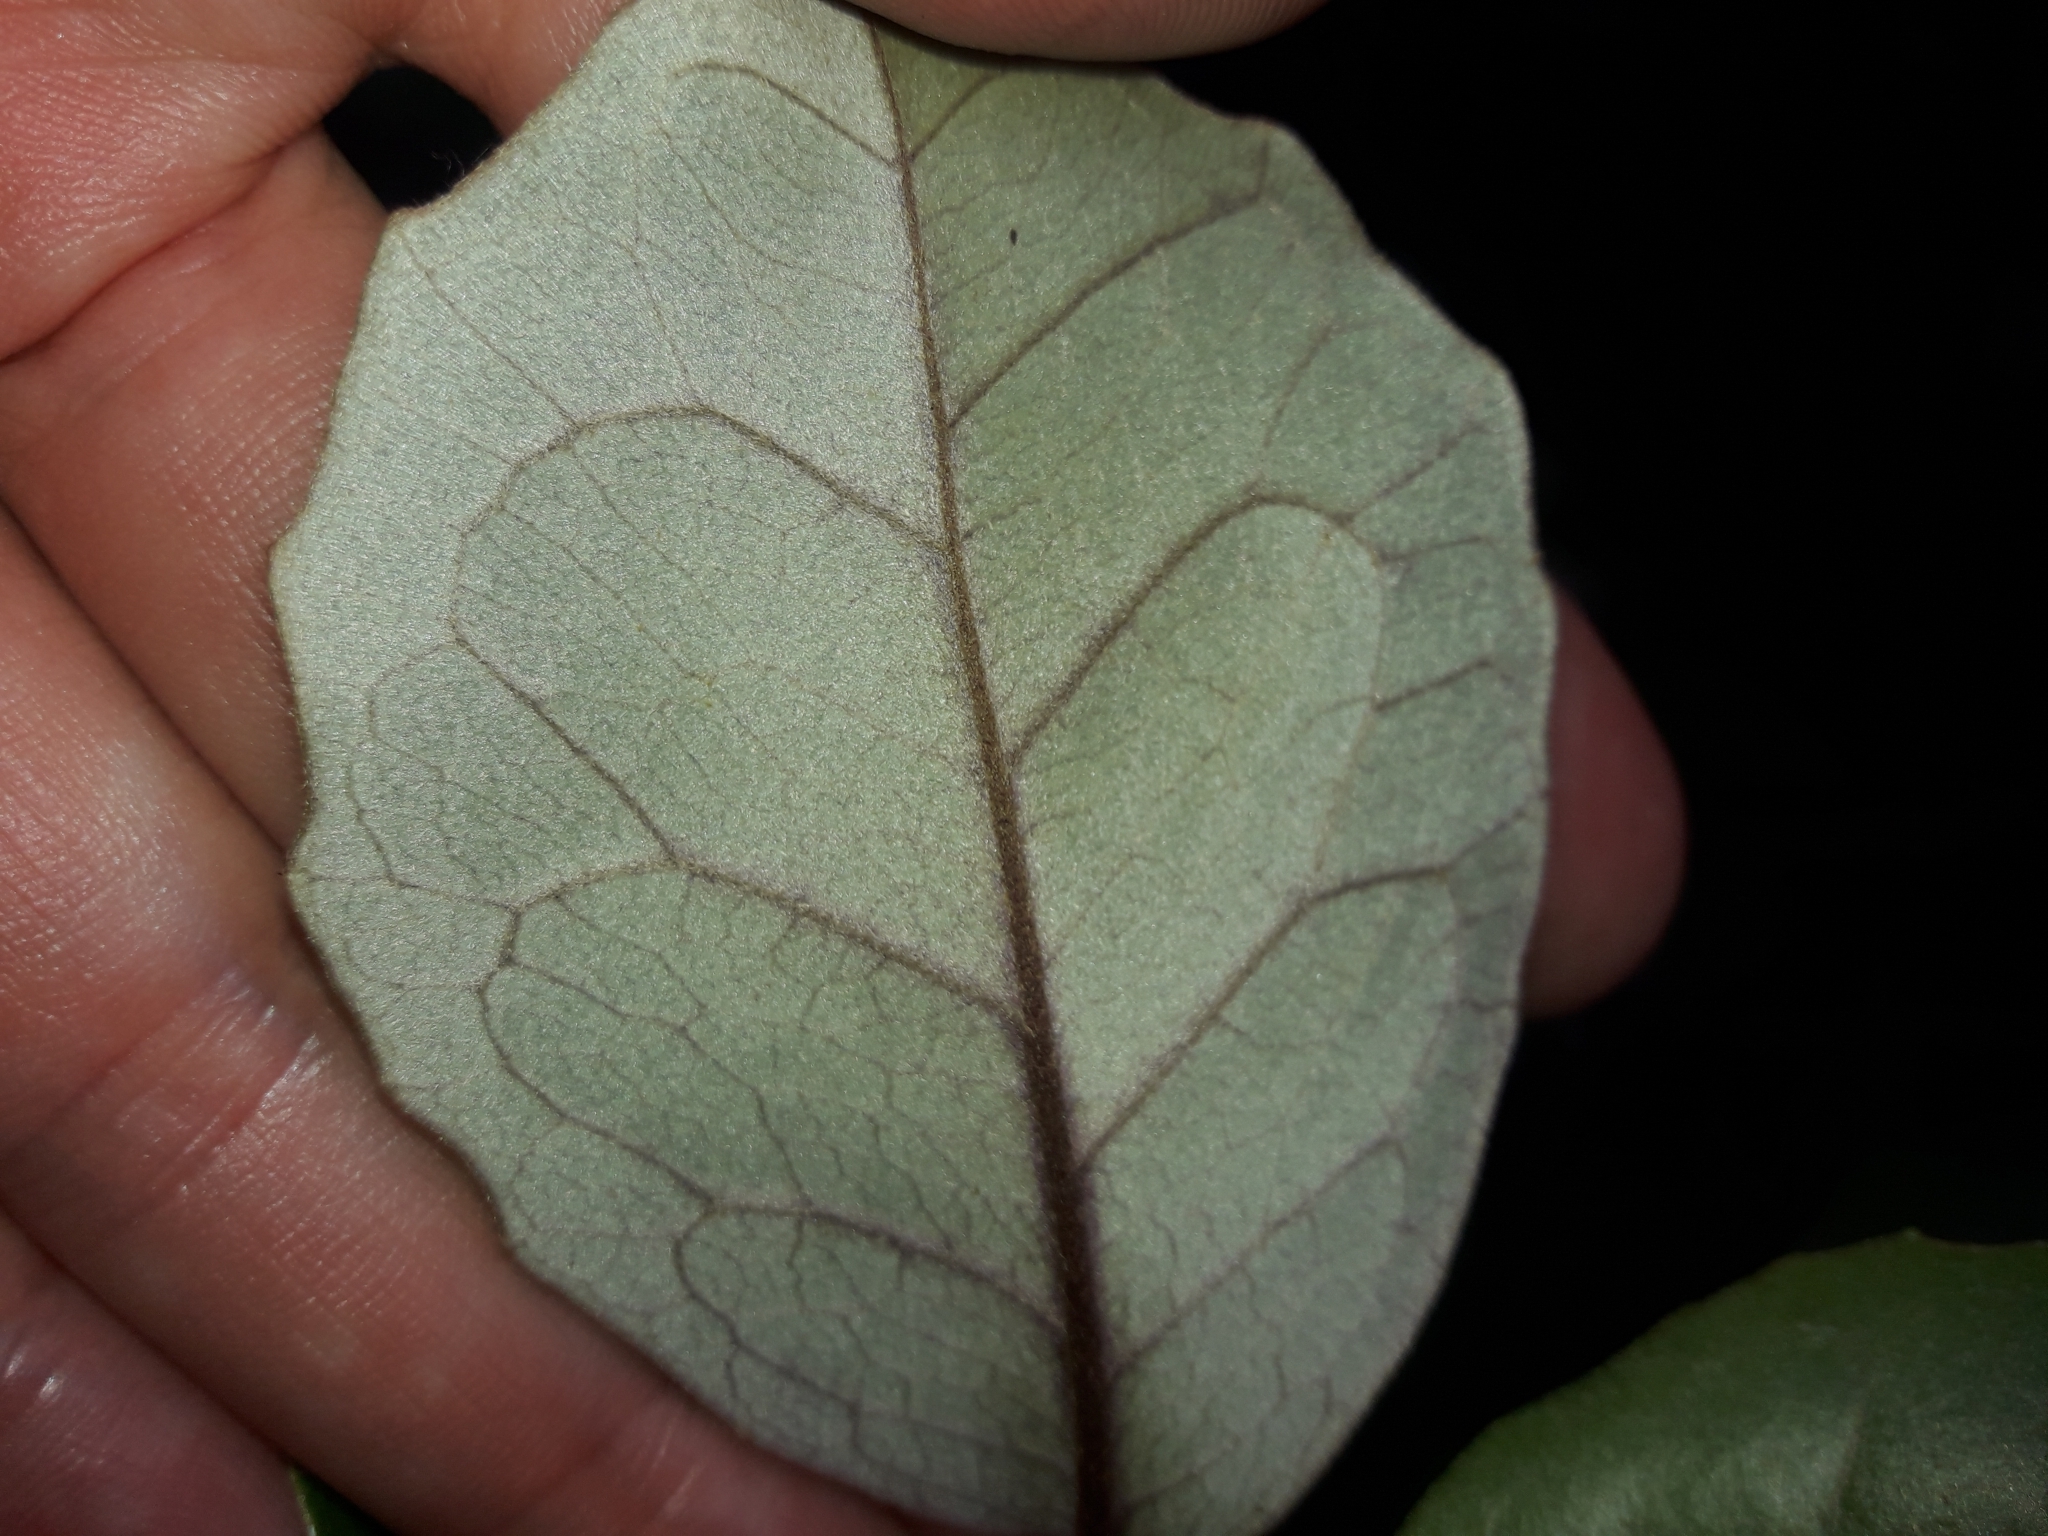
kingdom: Plantae
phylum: Tracheophyta
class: Magnoliopsida
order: Asterales
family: Asteraceae
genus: Olearia
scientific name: Olearia arborescens
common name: Glossy tree daisy
